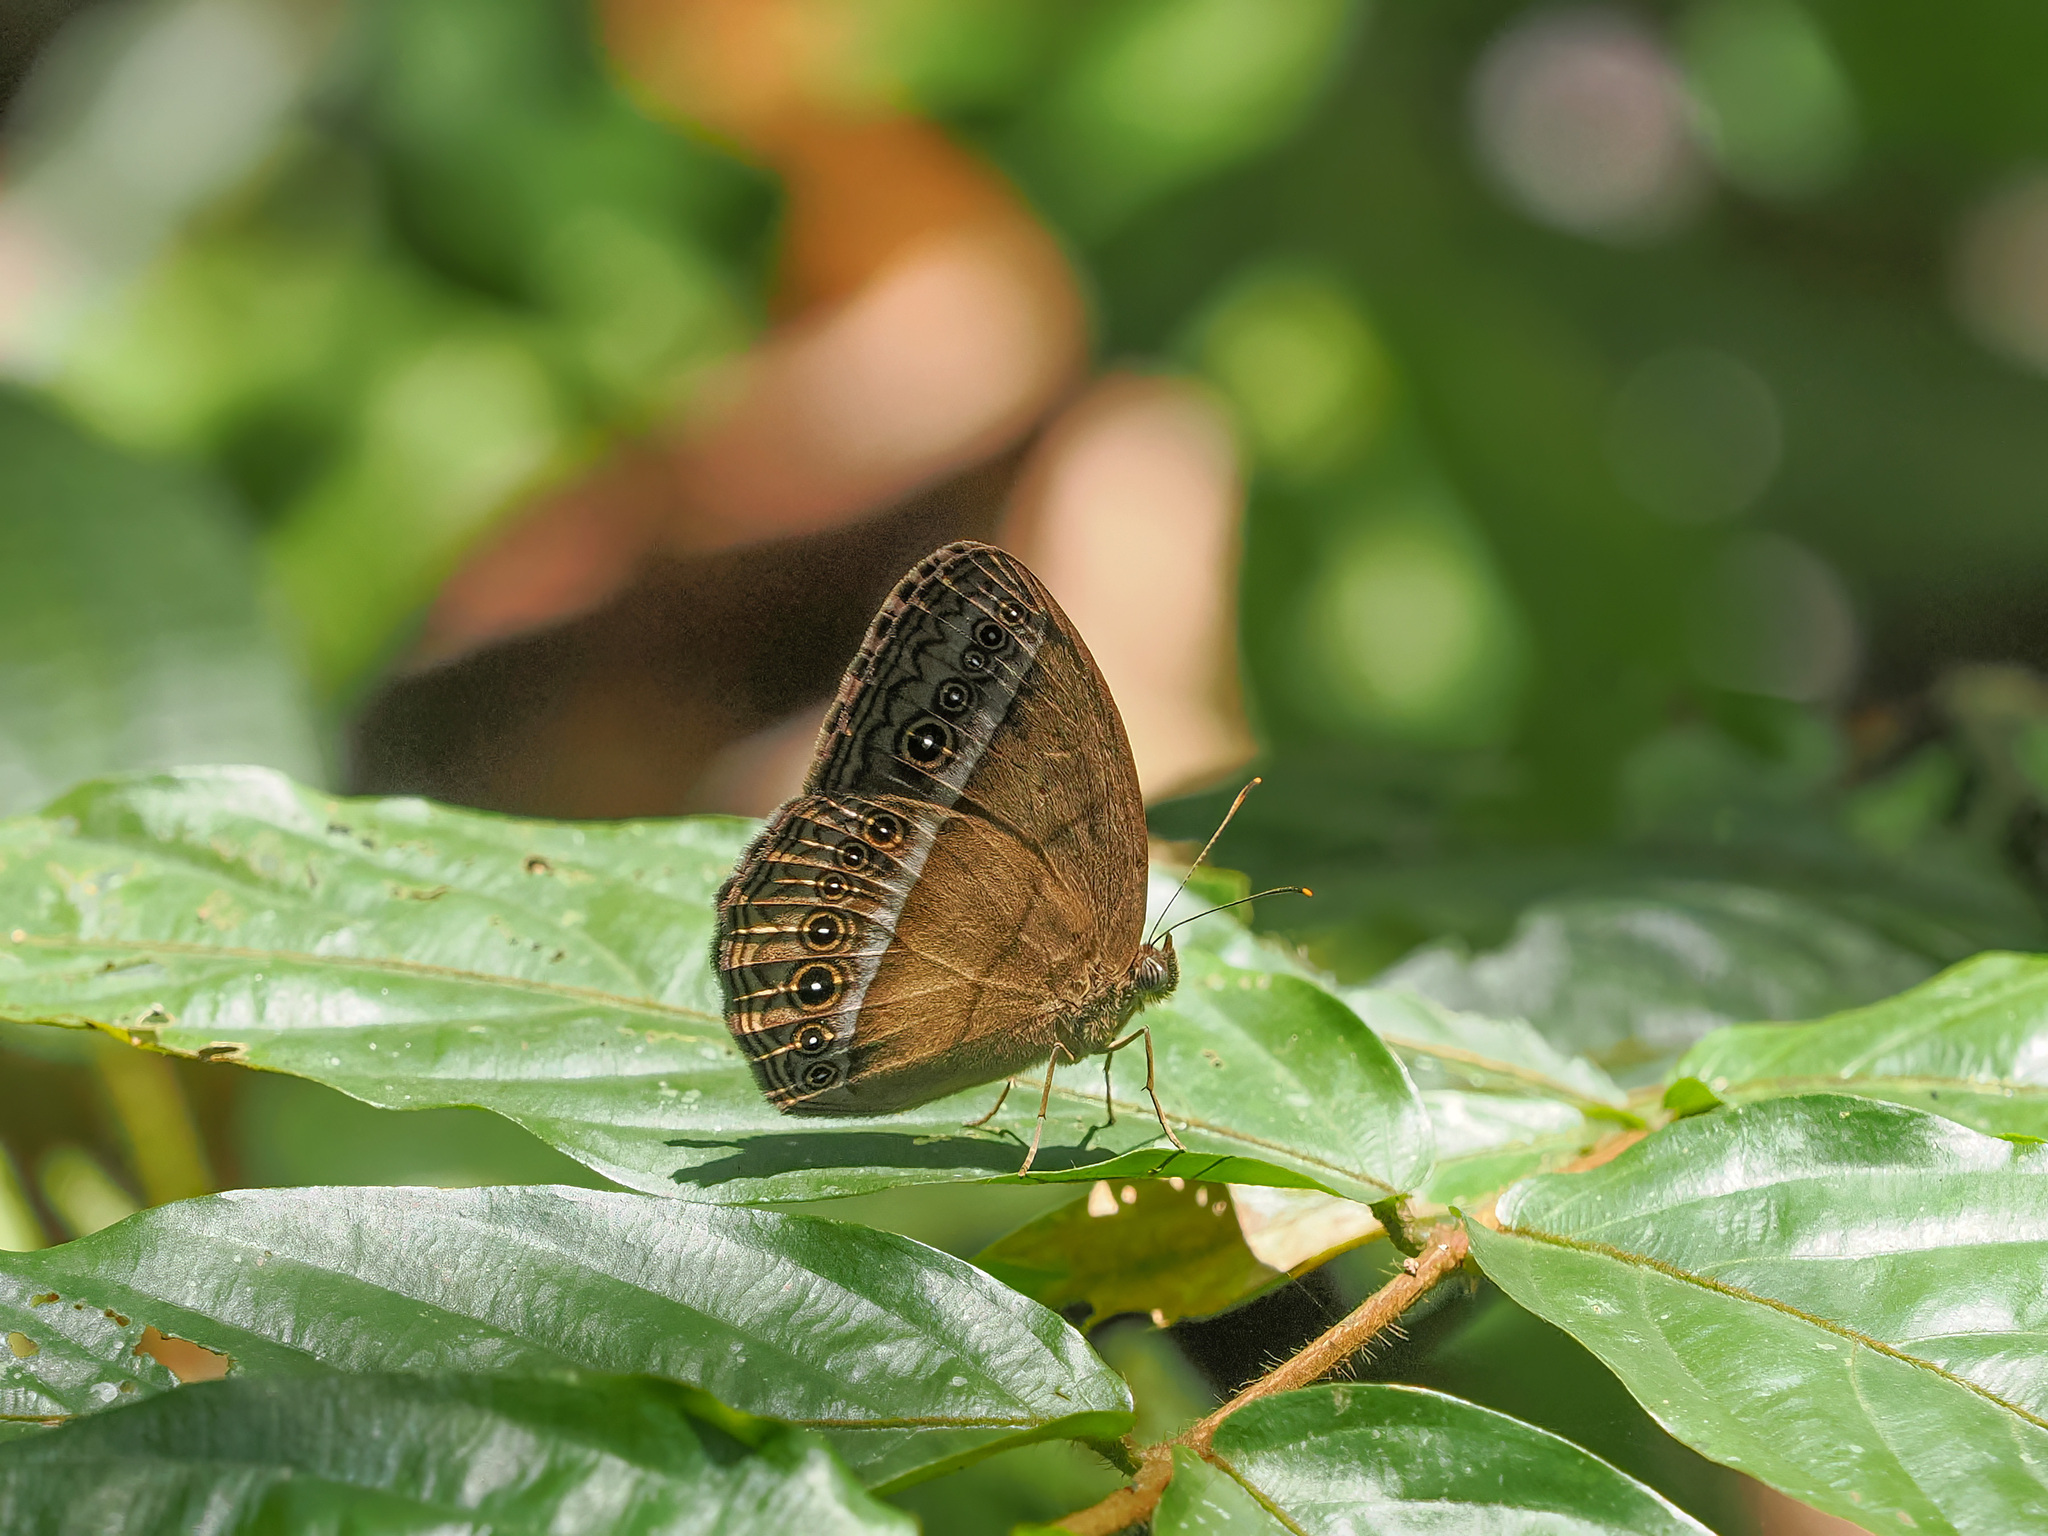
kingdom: Animalia
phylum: Arthropoda
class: Insecta
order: Lepidoptera
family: Nymphalidae
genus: Mycalesis
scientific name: Mycalesis orseis
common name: Purple bushbrown
